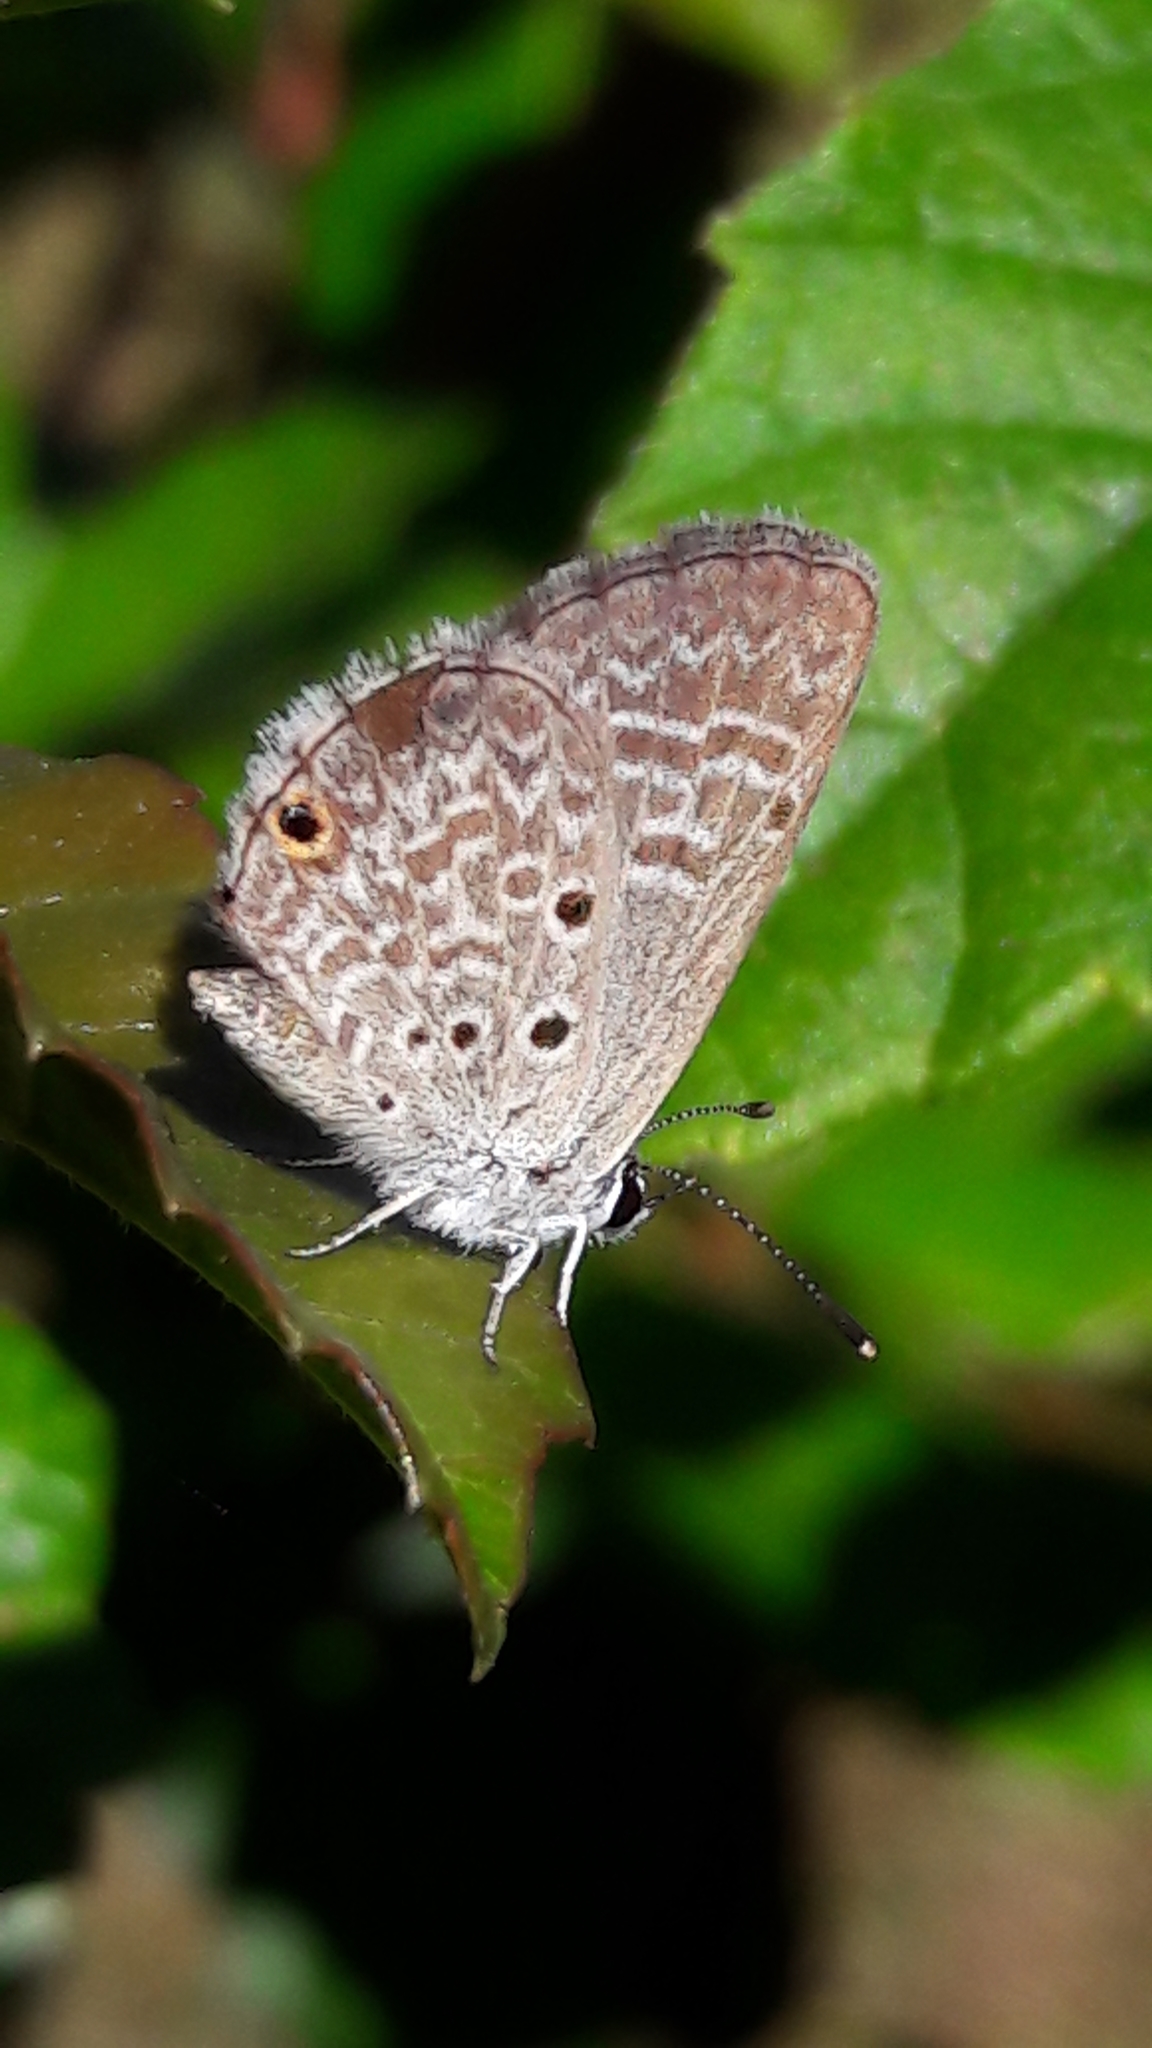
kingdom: Animalia
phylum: Arthropoda
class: Insecta
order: Lepidoptera
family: Lycaenidae
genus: Hemiargus
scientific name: Hemiargus hanno
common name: Common blue
